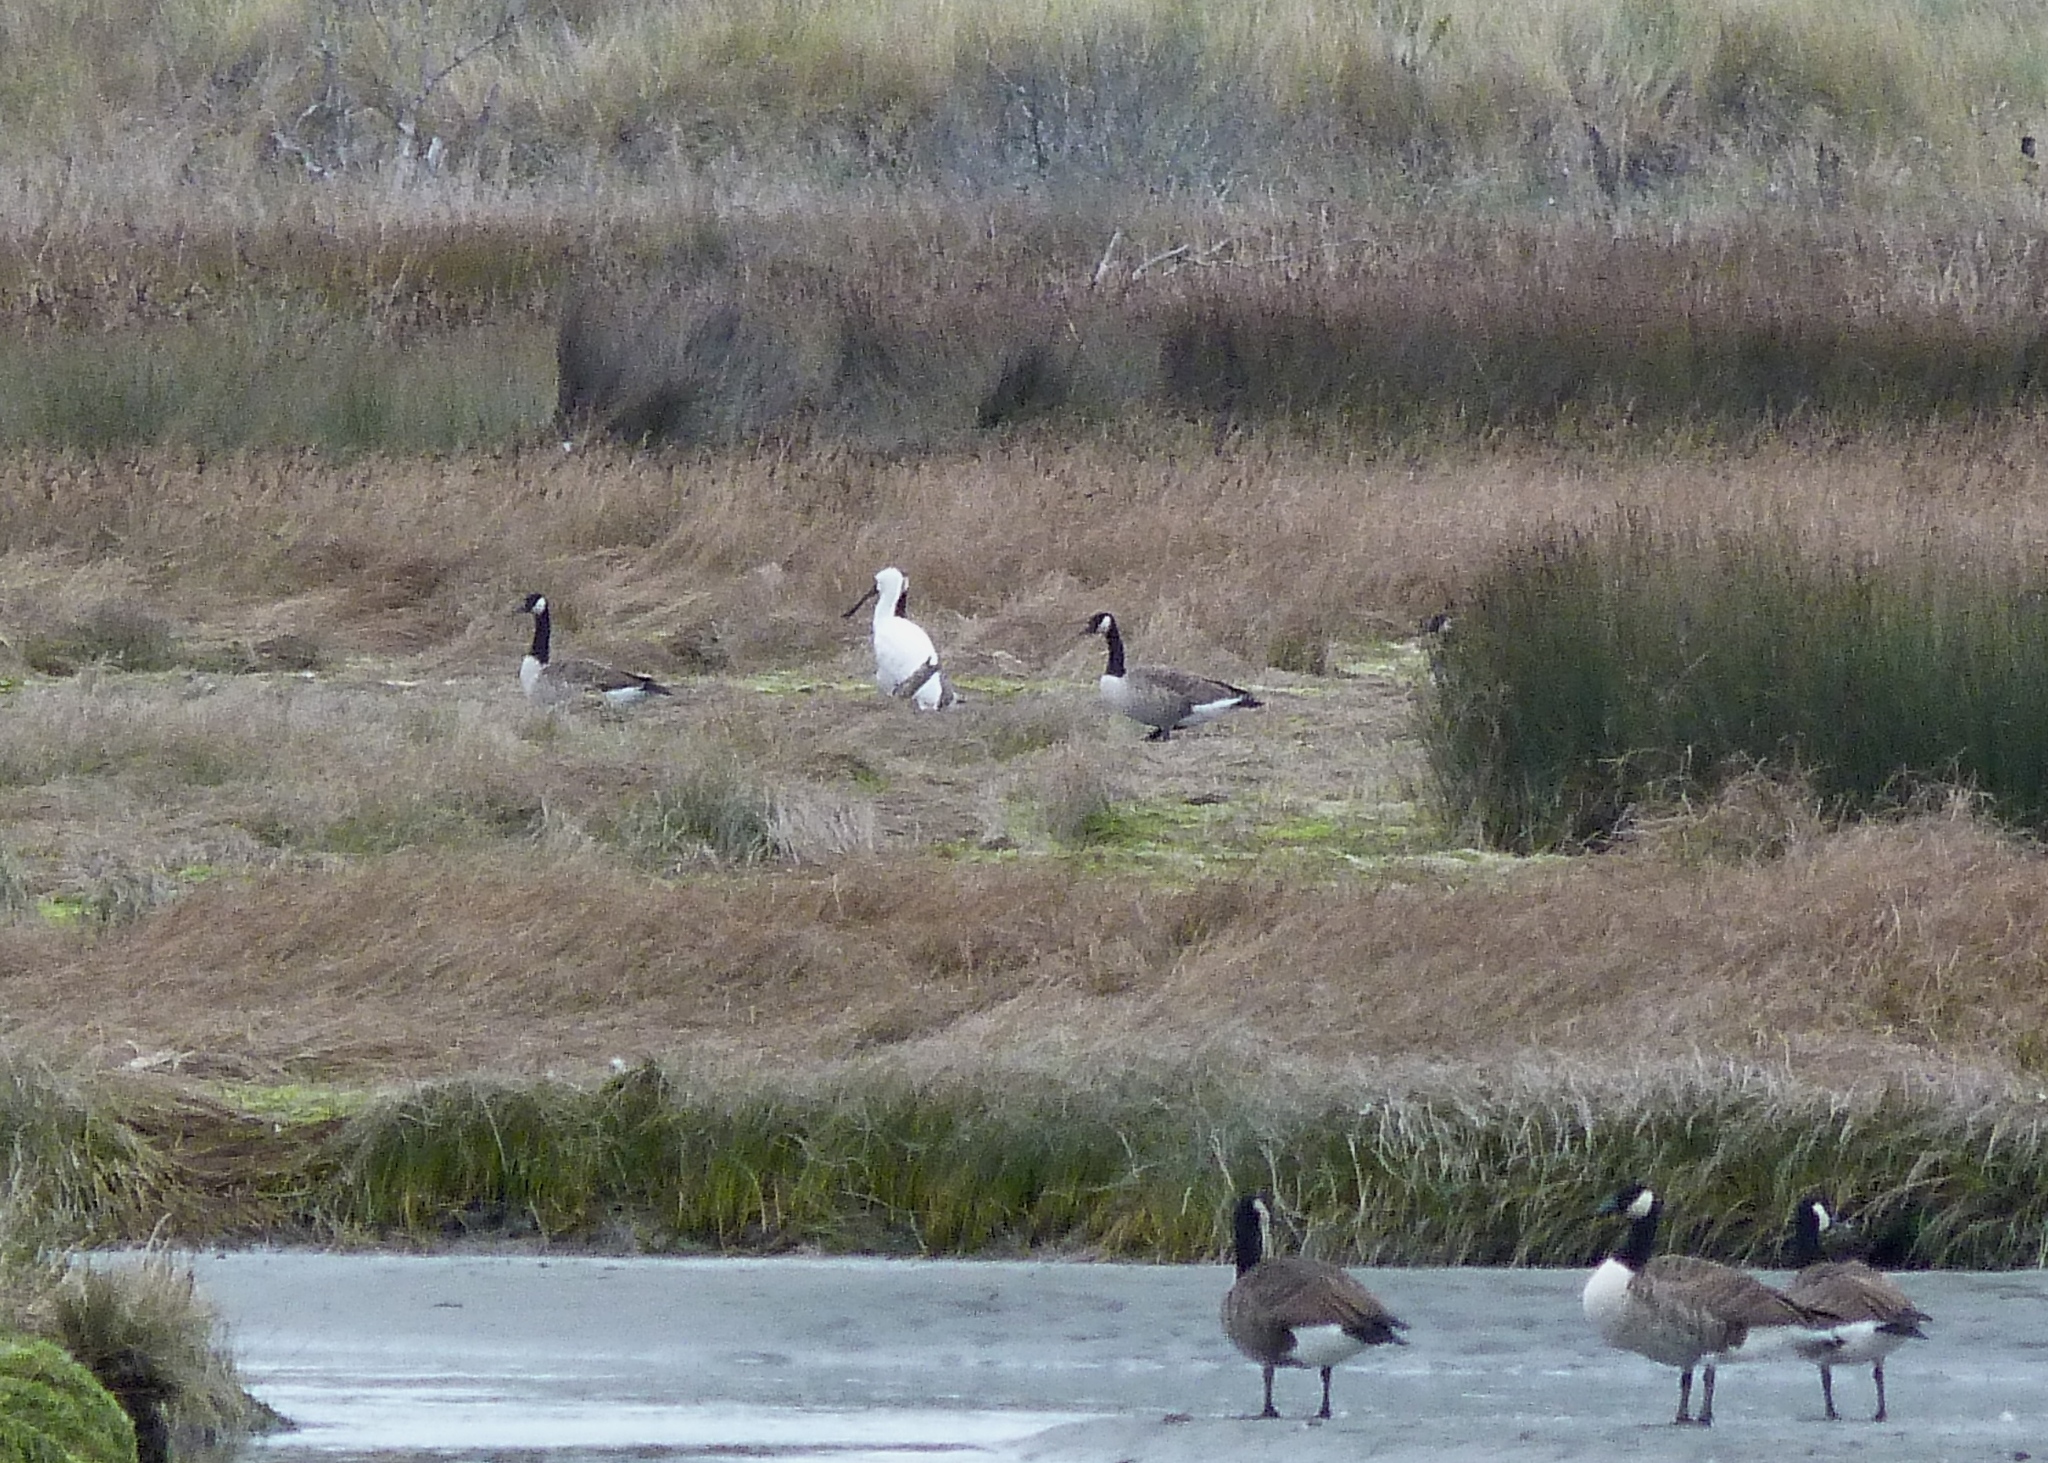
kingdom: Animalia
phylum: Chordata
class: Aves
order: Pelecaniformes
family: Threskiornithidae
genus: Platalea
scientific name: Platalea regia
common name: Royal spoonbill
